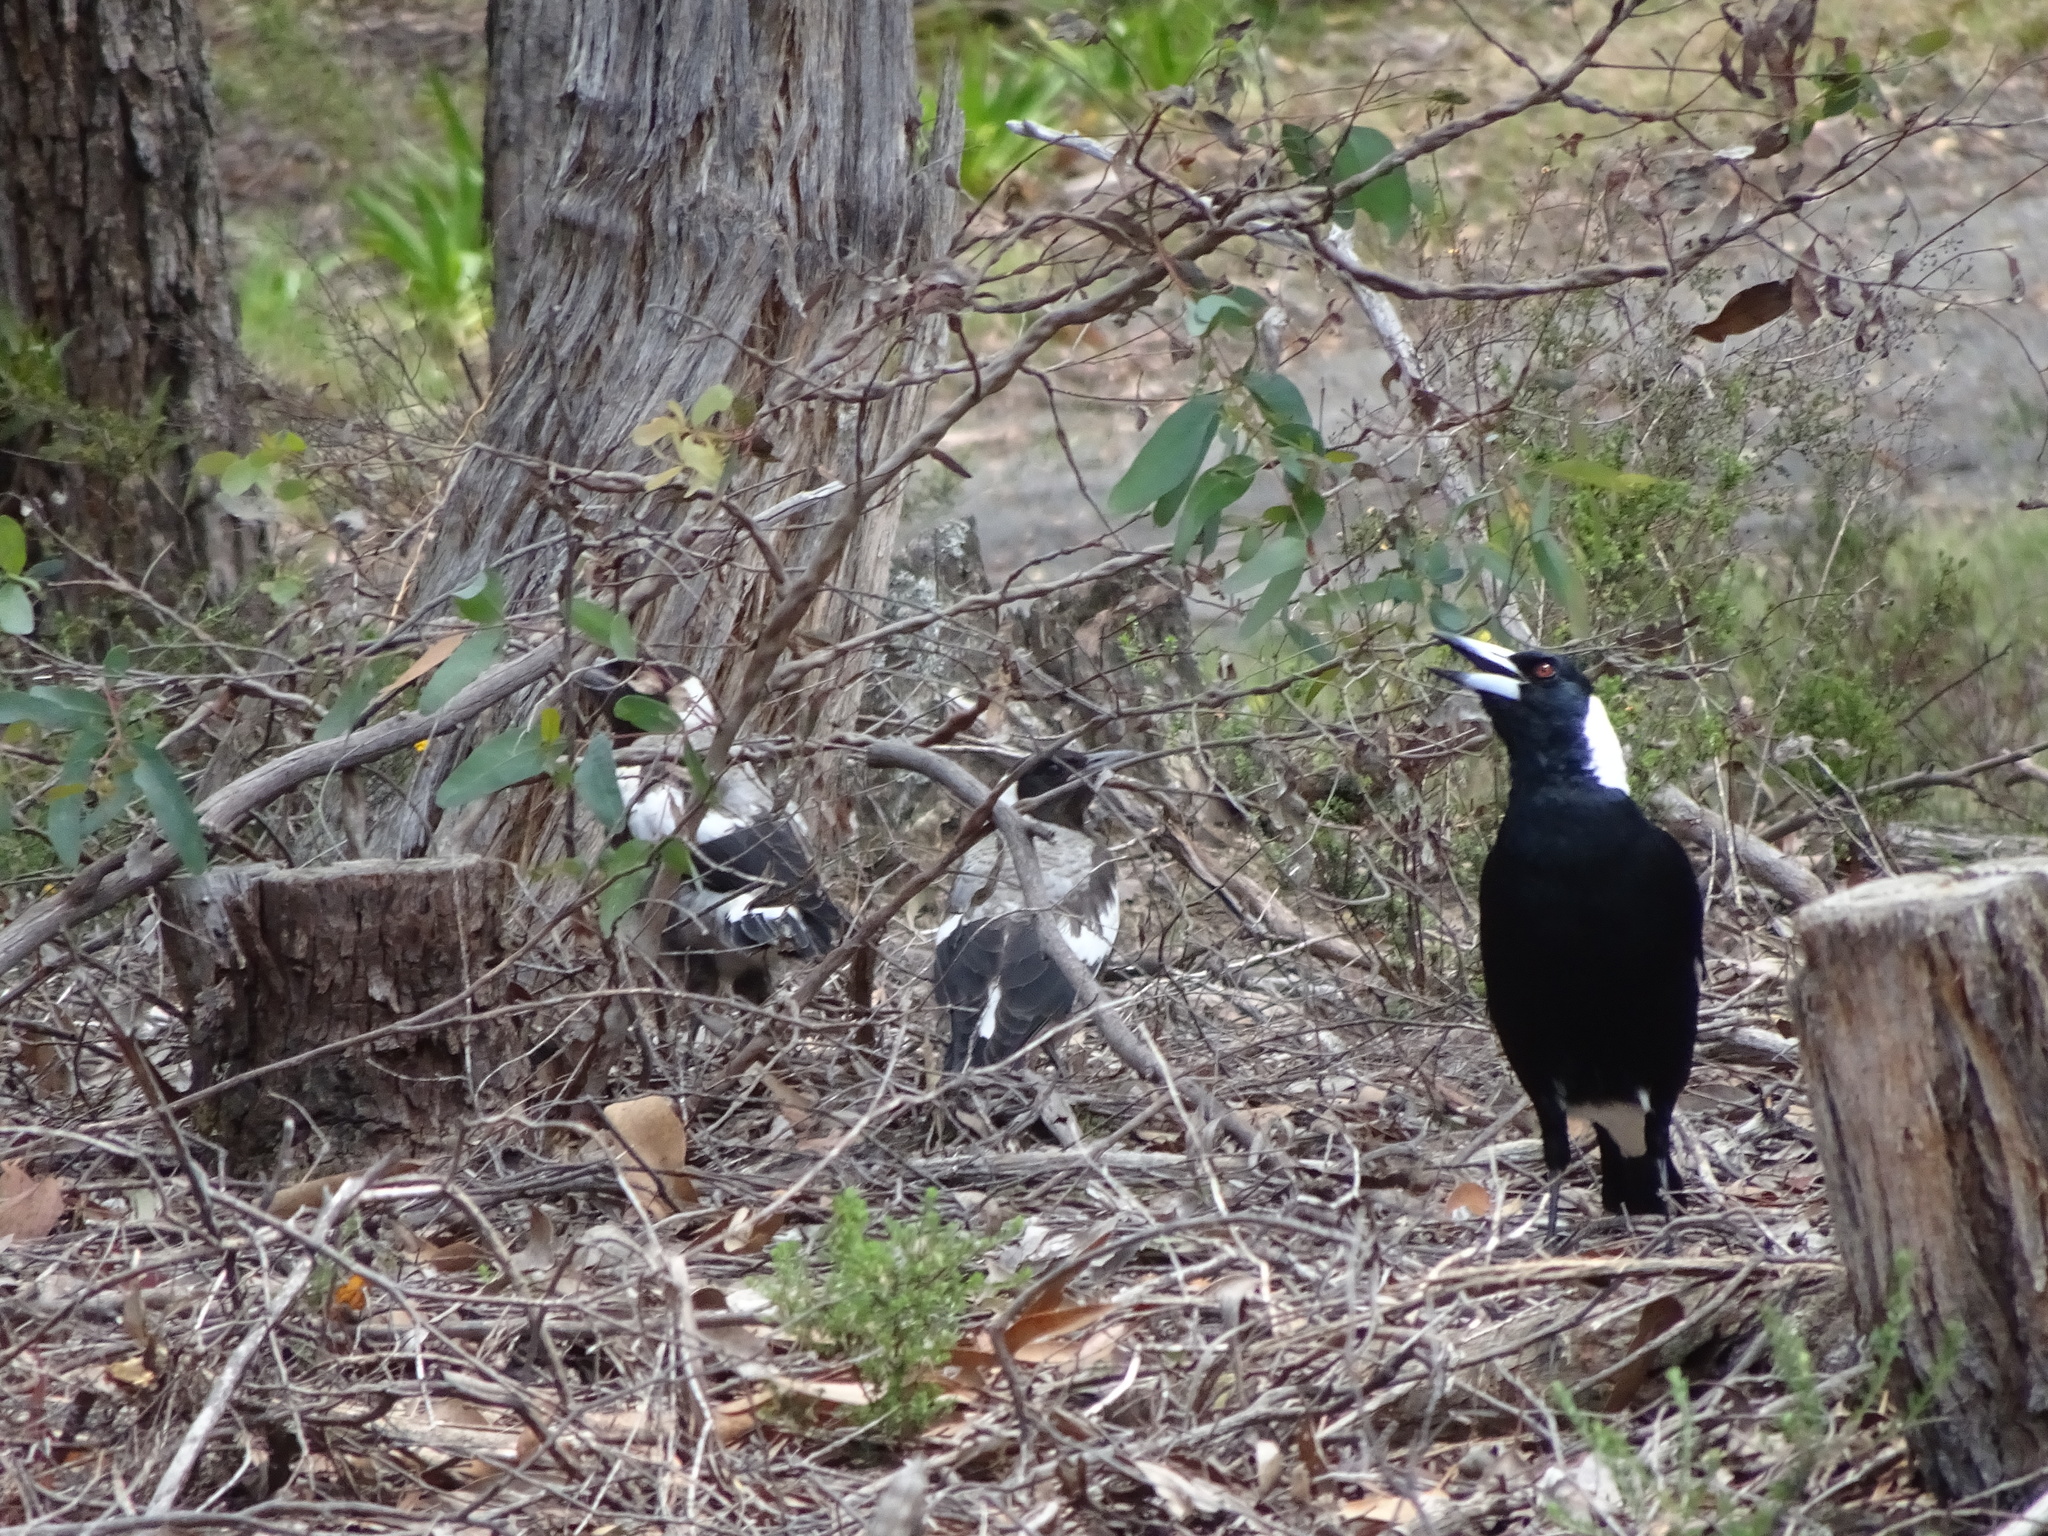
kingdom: Animalia
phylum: Chordata
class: Aves
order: Passeriformes
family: Cracticidae
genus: Gymnorhina
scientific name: Gymnorhina tibicen
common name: Australian magpie
